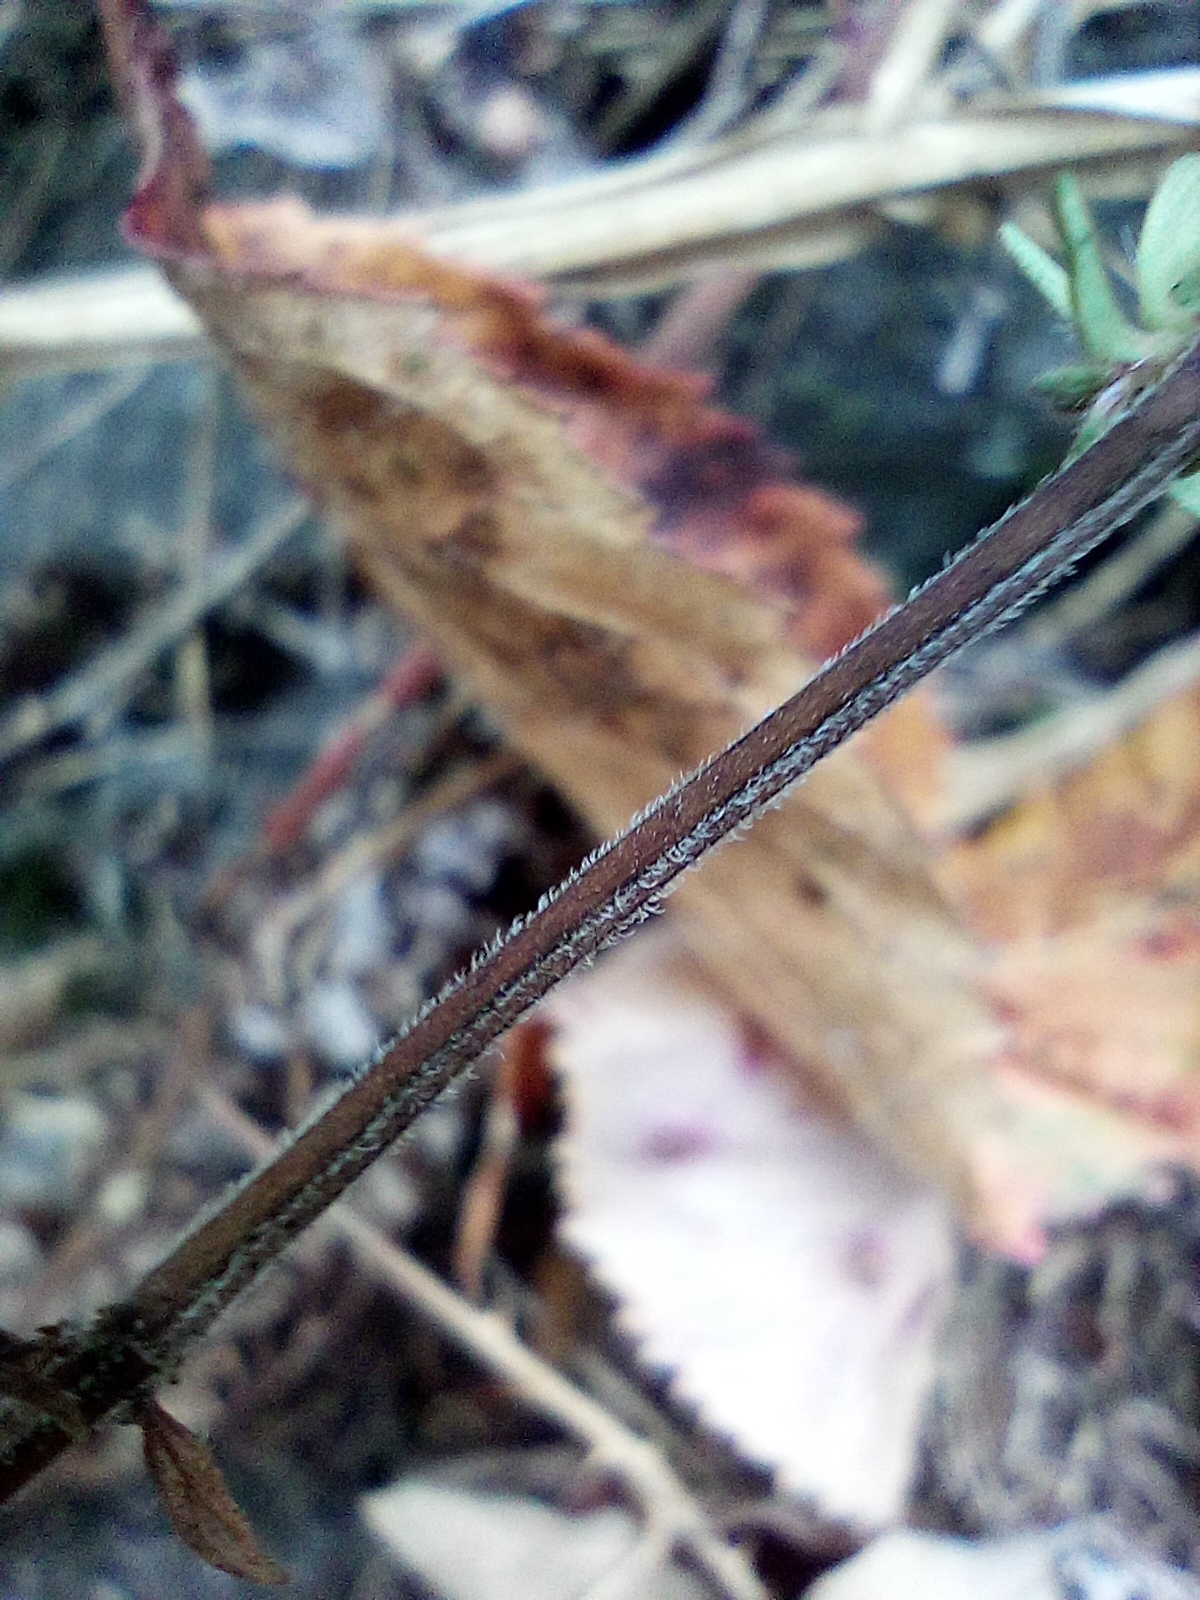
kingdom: Plantae
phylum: Tracheophyta
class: Magnoliopsida
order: Lamiales
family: Lamiaceae
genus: Thymus
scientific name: Thymus pulegioides
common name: Large thyme
